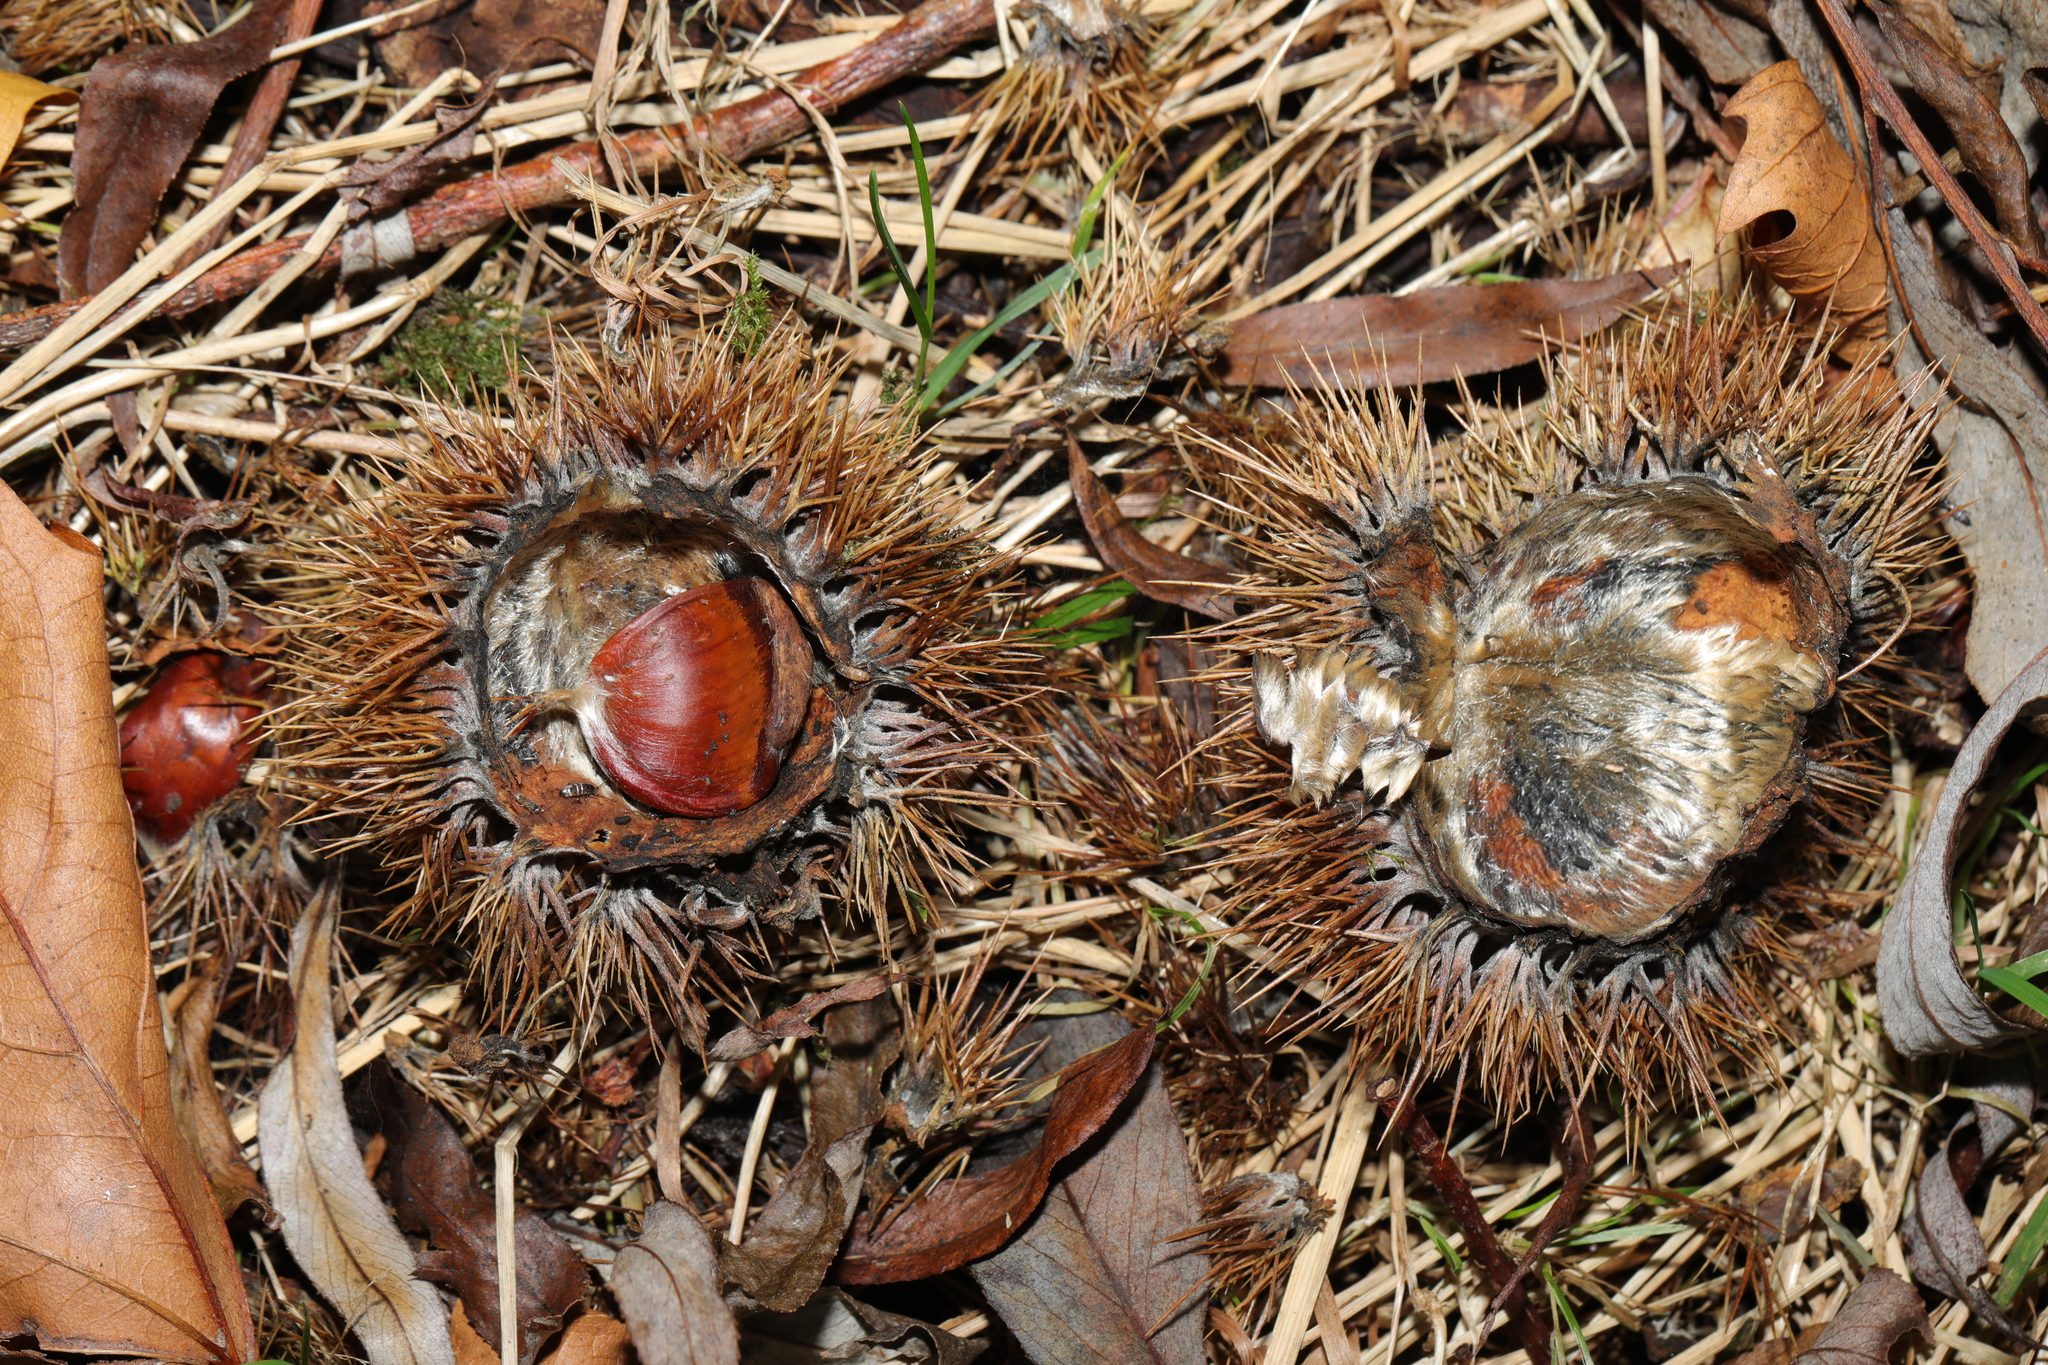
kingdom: Plantae
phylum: Tracheophyta
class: Magnoliopsida
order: Fagales
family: Fagaceae
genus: Castanea
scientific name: Castanea sativa
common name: Sweet chestnut
